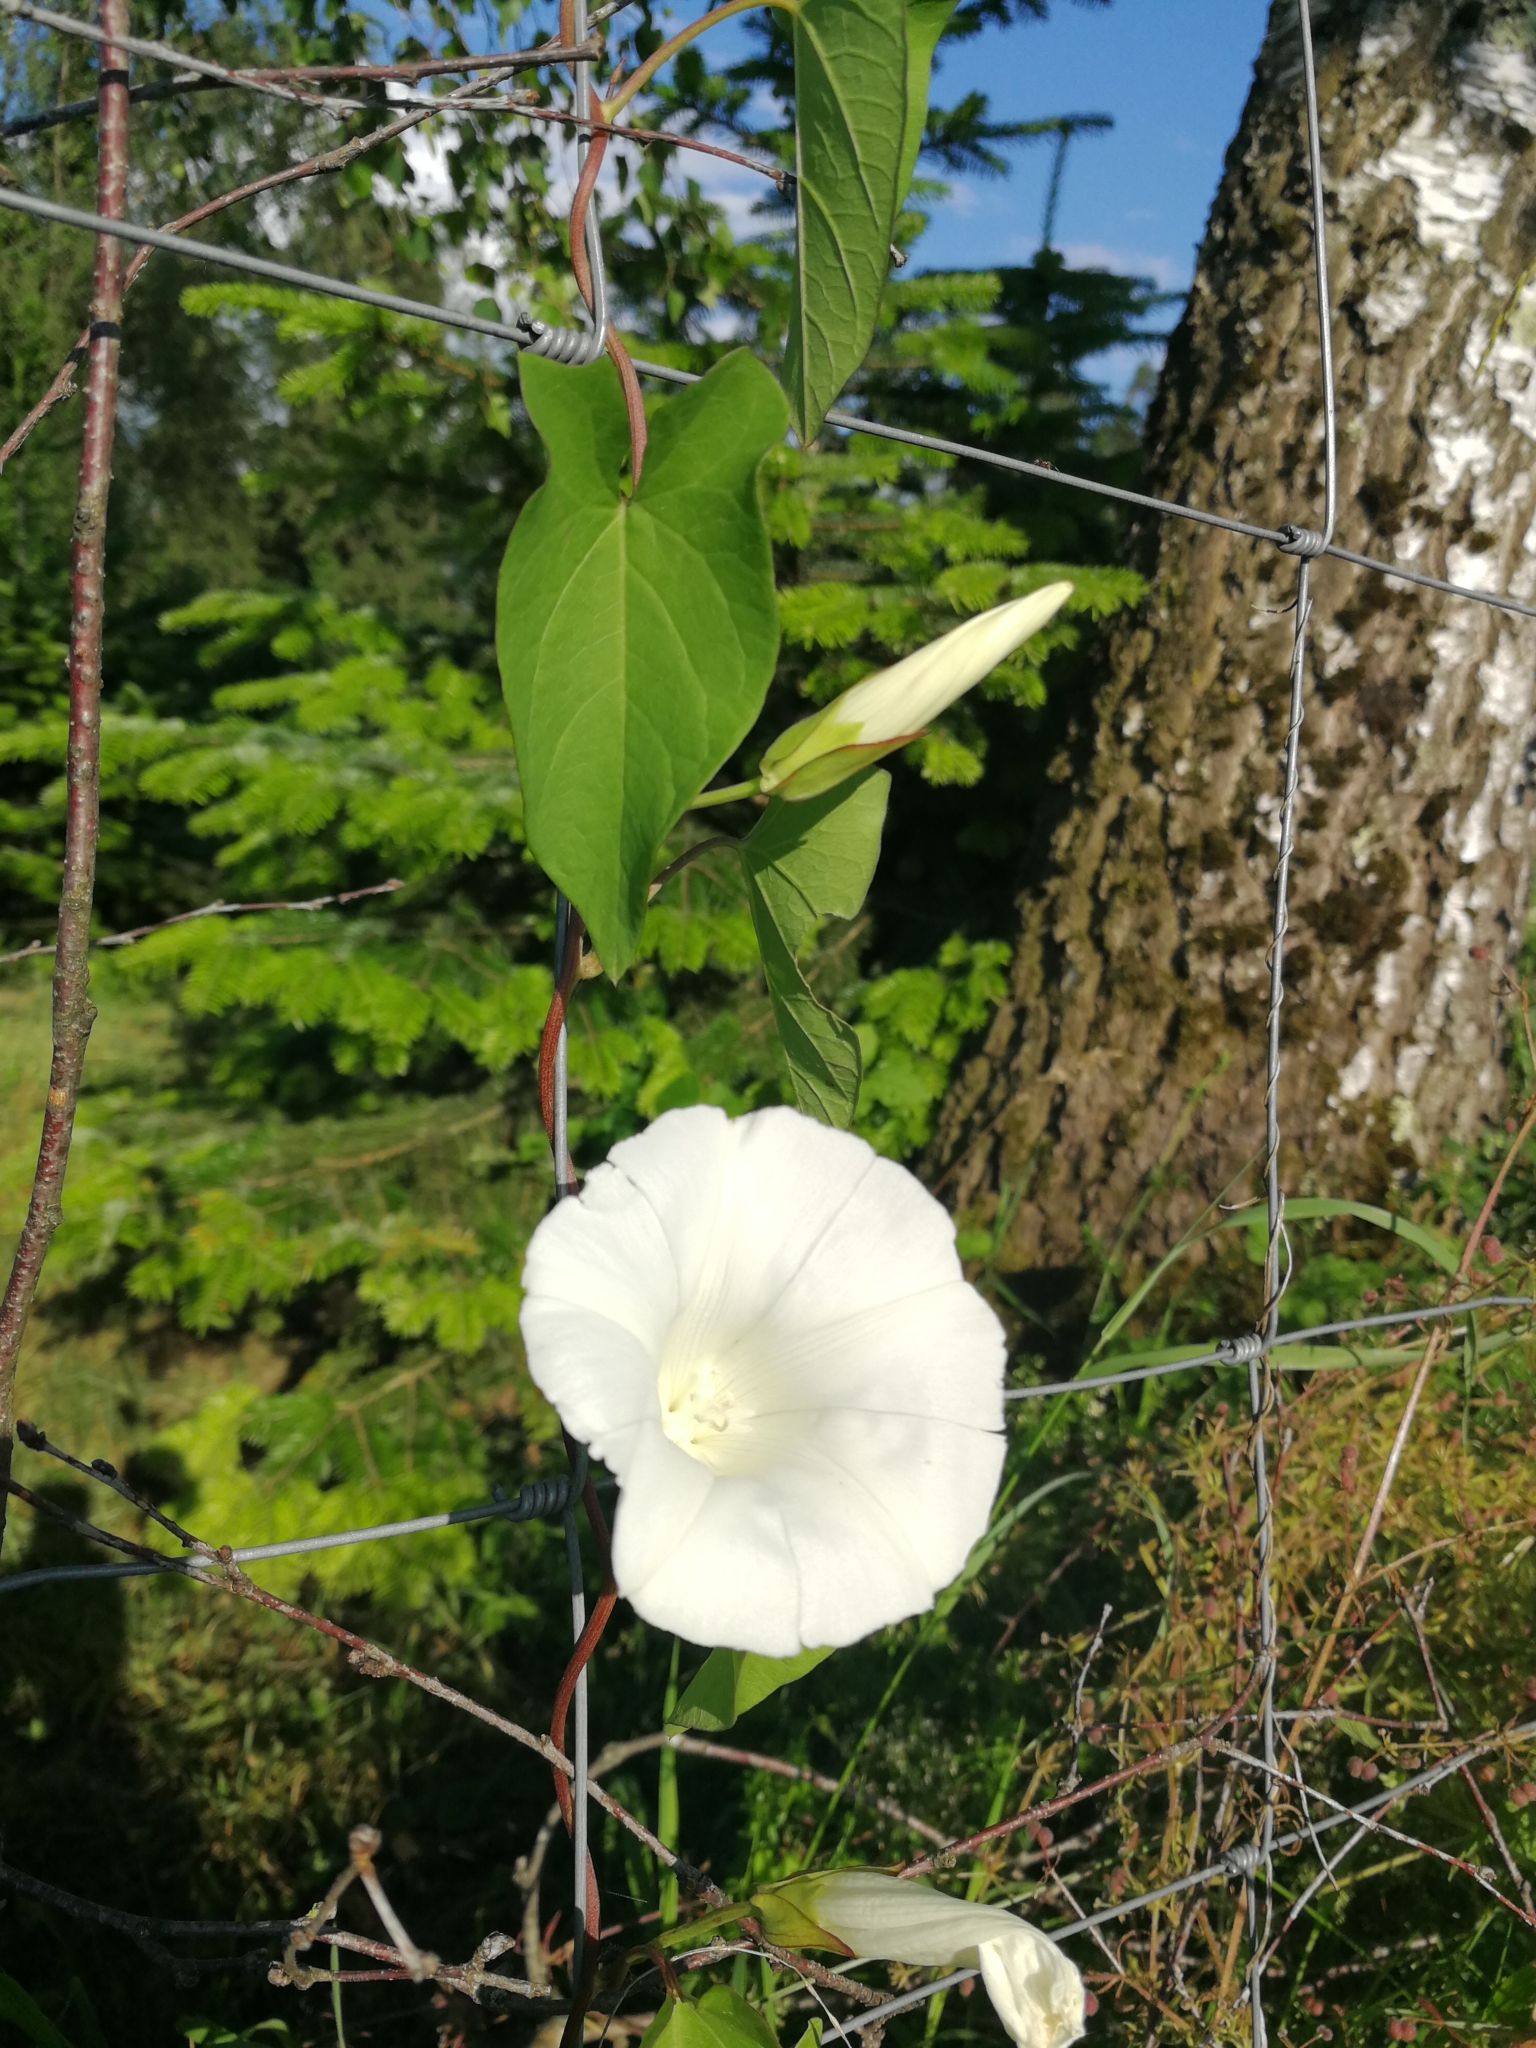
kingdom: Plantae
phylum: Tracheophyta
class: Magnoliopsida
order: Solanales
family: Convolvulaceae
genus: Calystegia
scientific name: Calystegia sepium
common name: Hedge bindweed
